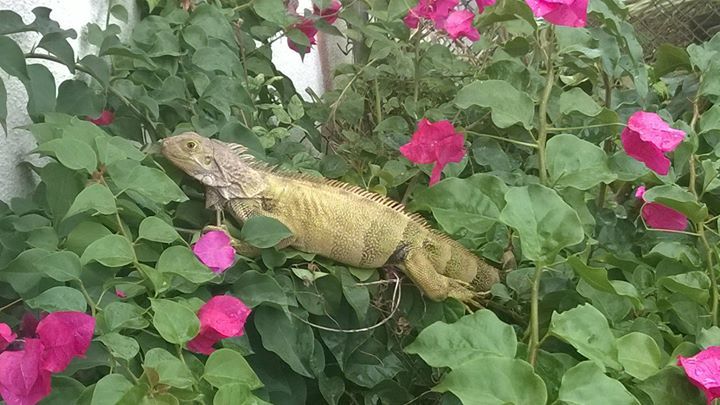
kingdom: Animalia
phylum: Chordata
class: Squamata
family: Iguanidae
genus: Iguana
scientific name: Iguana iguana
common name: Green iguana
